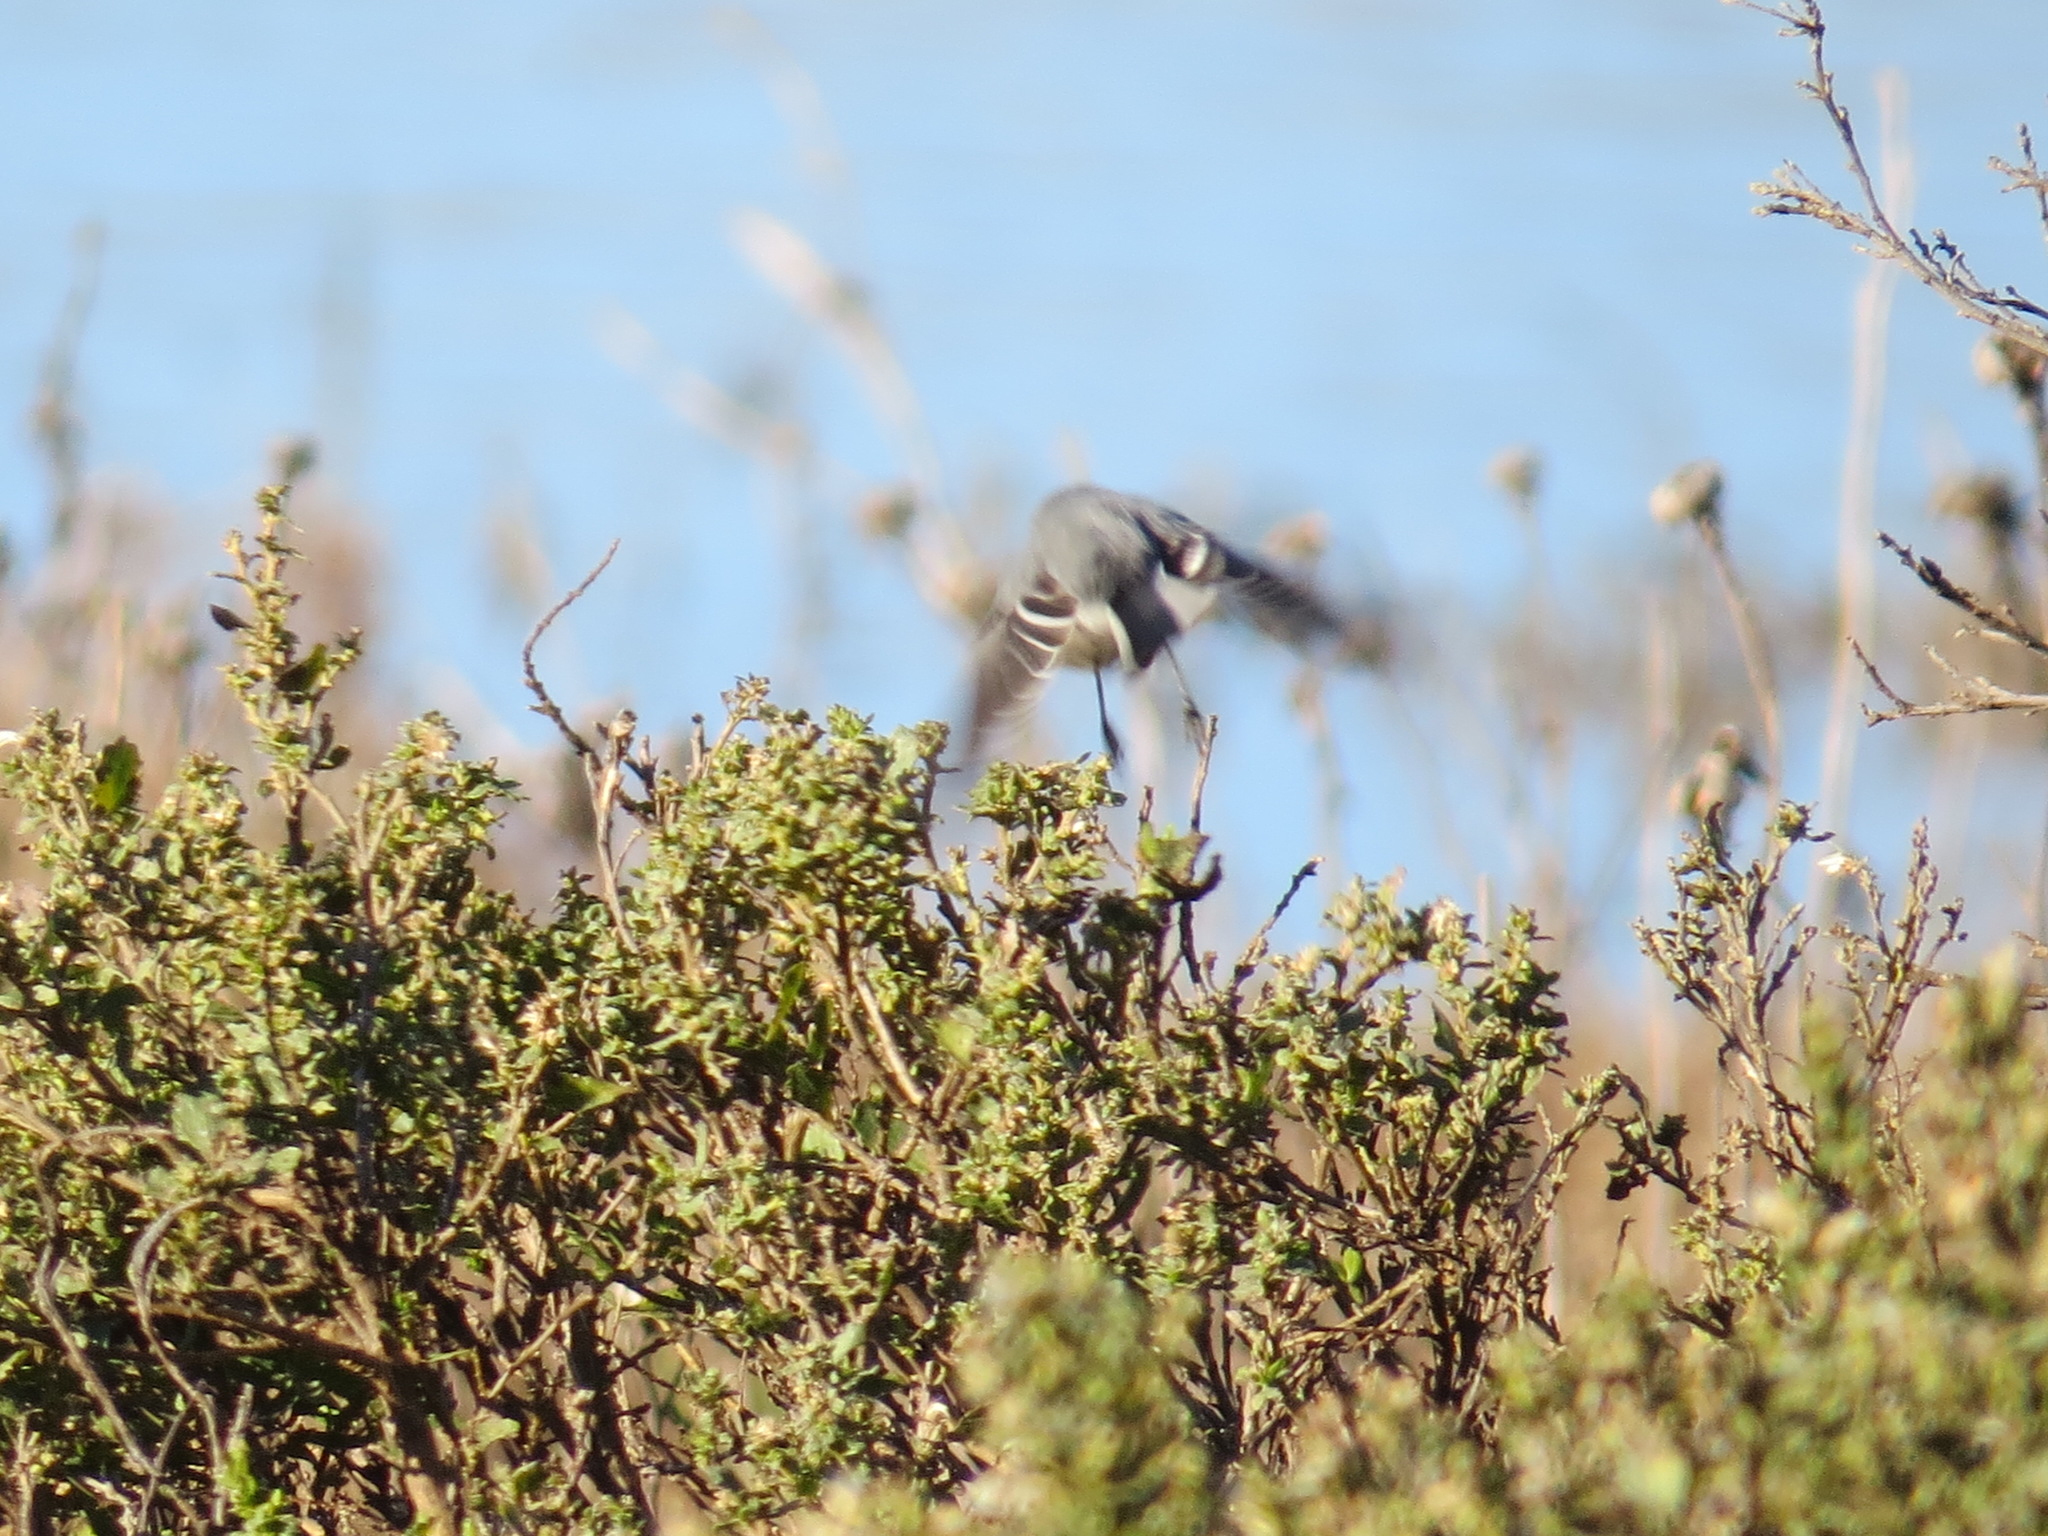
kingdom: Animalia
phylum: Chordata
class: Aves
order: Passeriformes
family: Polioptilidae
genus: Polioptila
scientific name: Polioptila caerulea
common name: Blue-gray gnatcatcher
